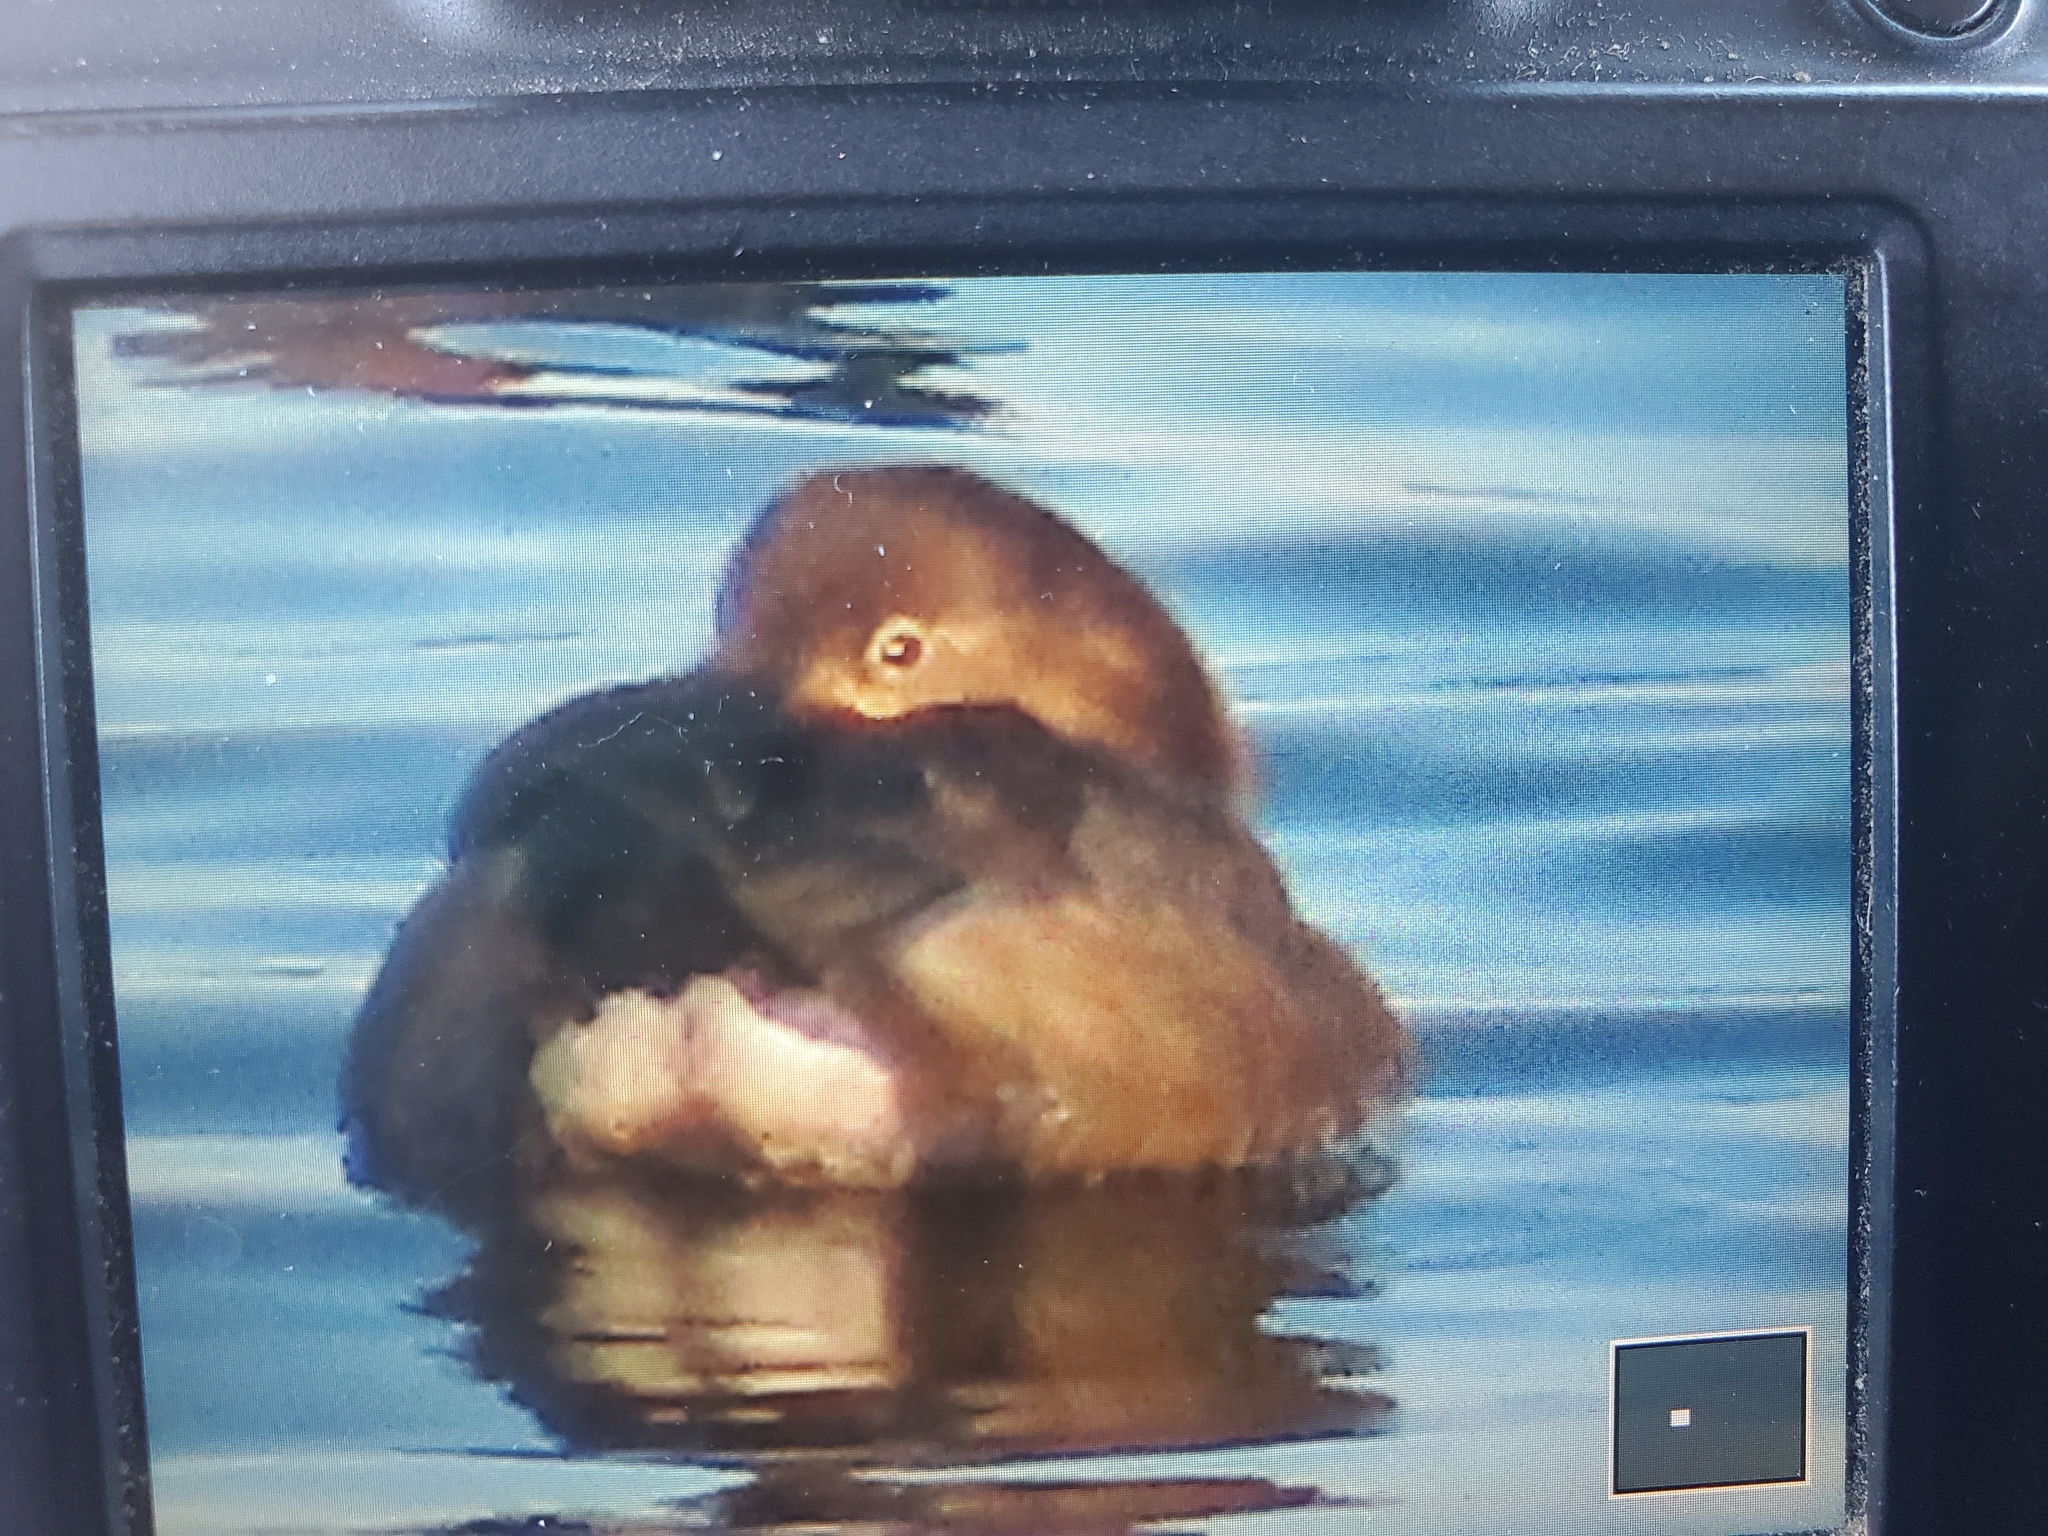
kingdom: Animalia
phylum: Chordata
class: Aves
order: Anseriformes
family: Anatidae
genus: Aythya
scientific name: Aythya americana
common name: Redhead
